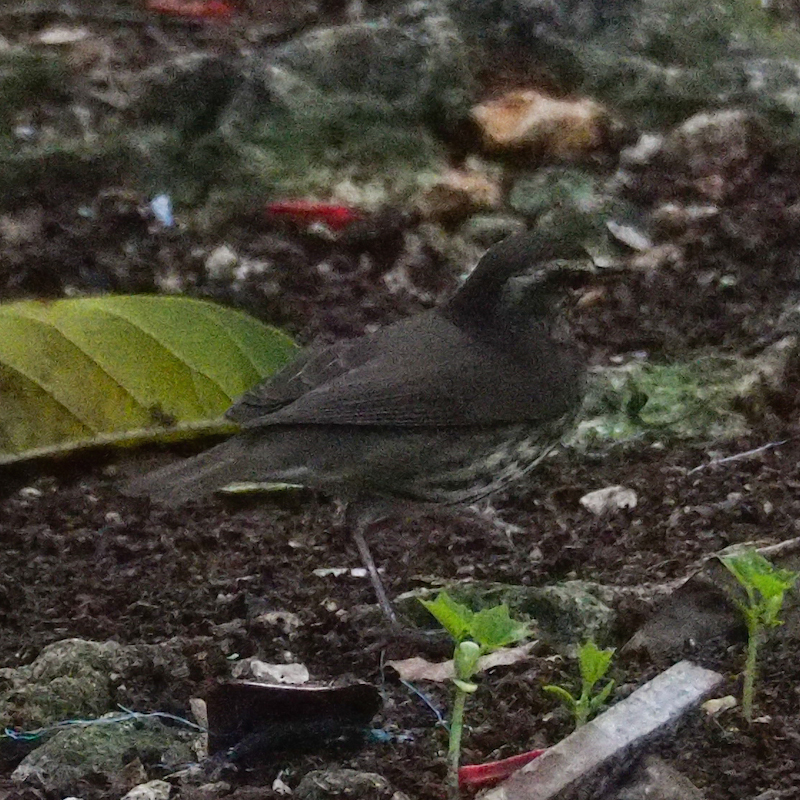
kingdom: Animalia
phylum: Chordata
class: Aves
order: Passeriformes
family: Parulidae
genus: Parkesia
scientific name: Parkesia noveboracensis
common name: Northern waterthrush
